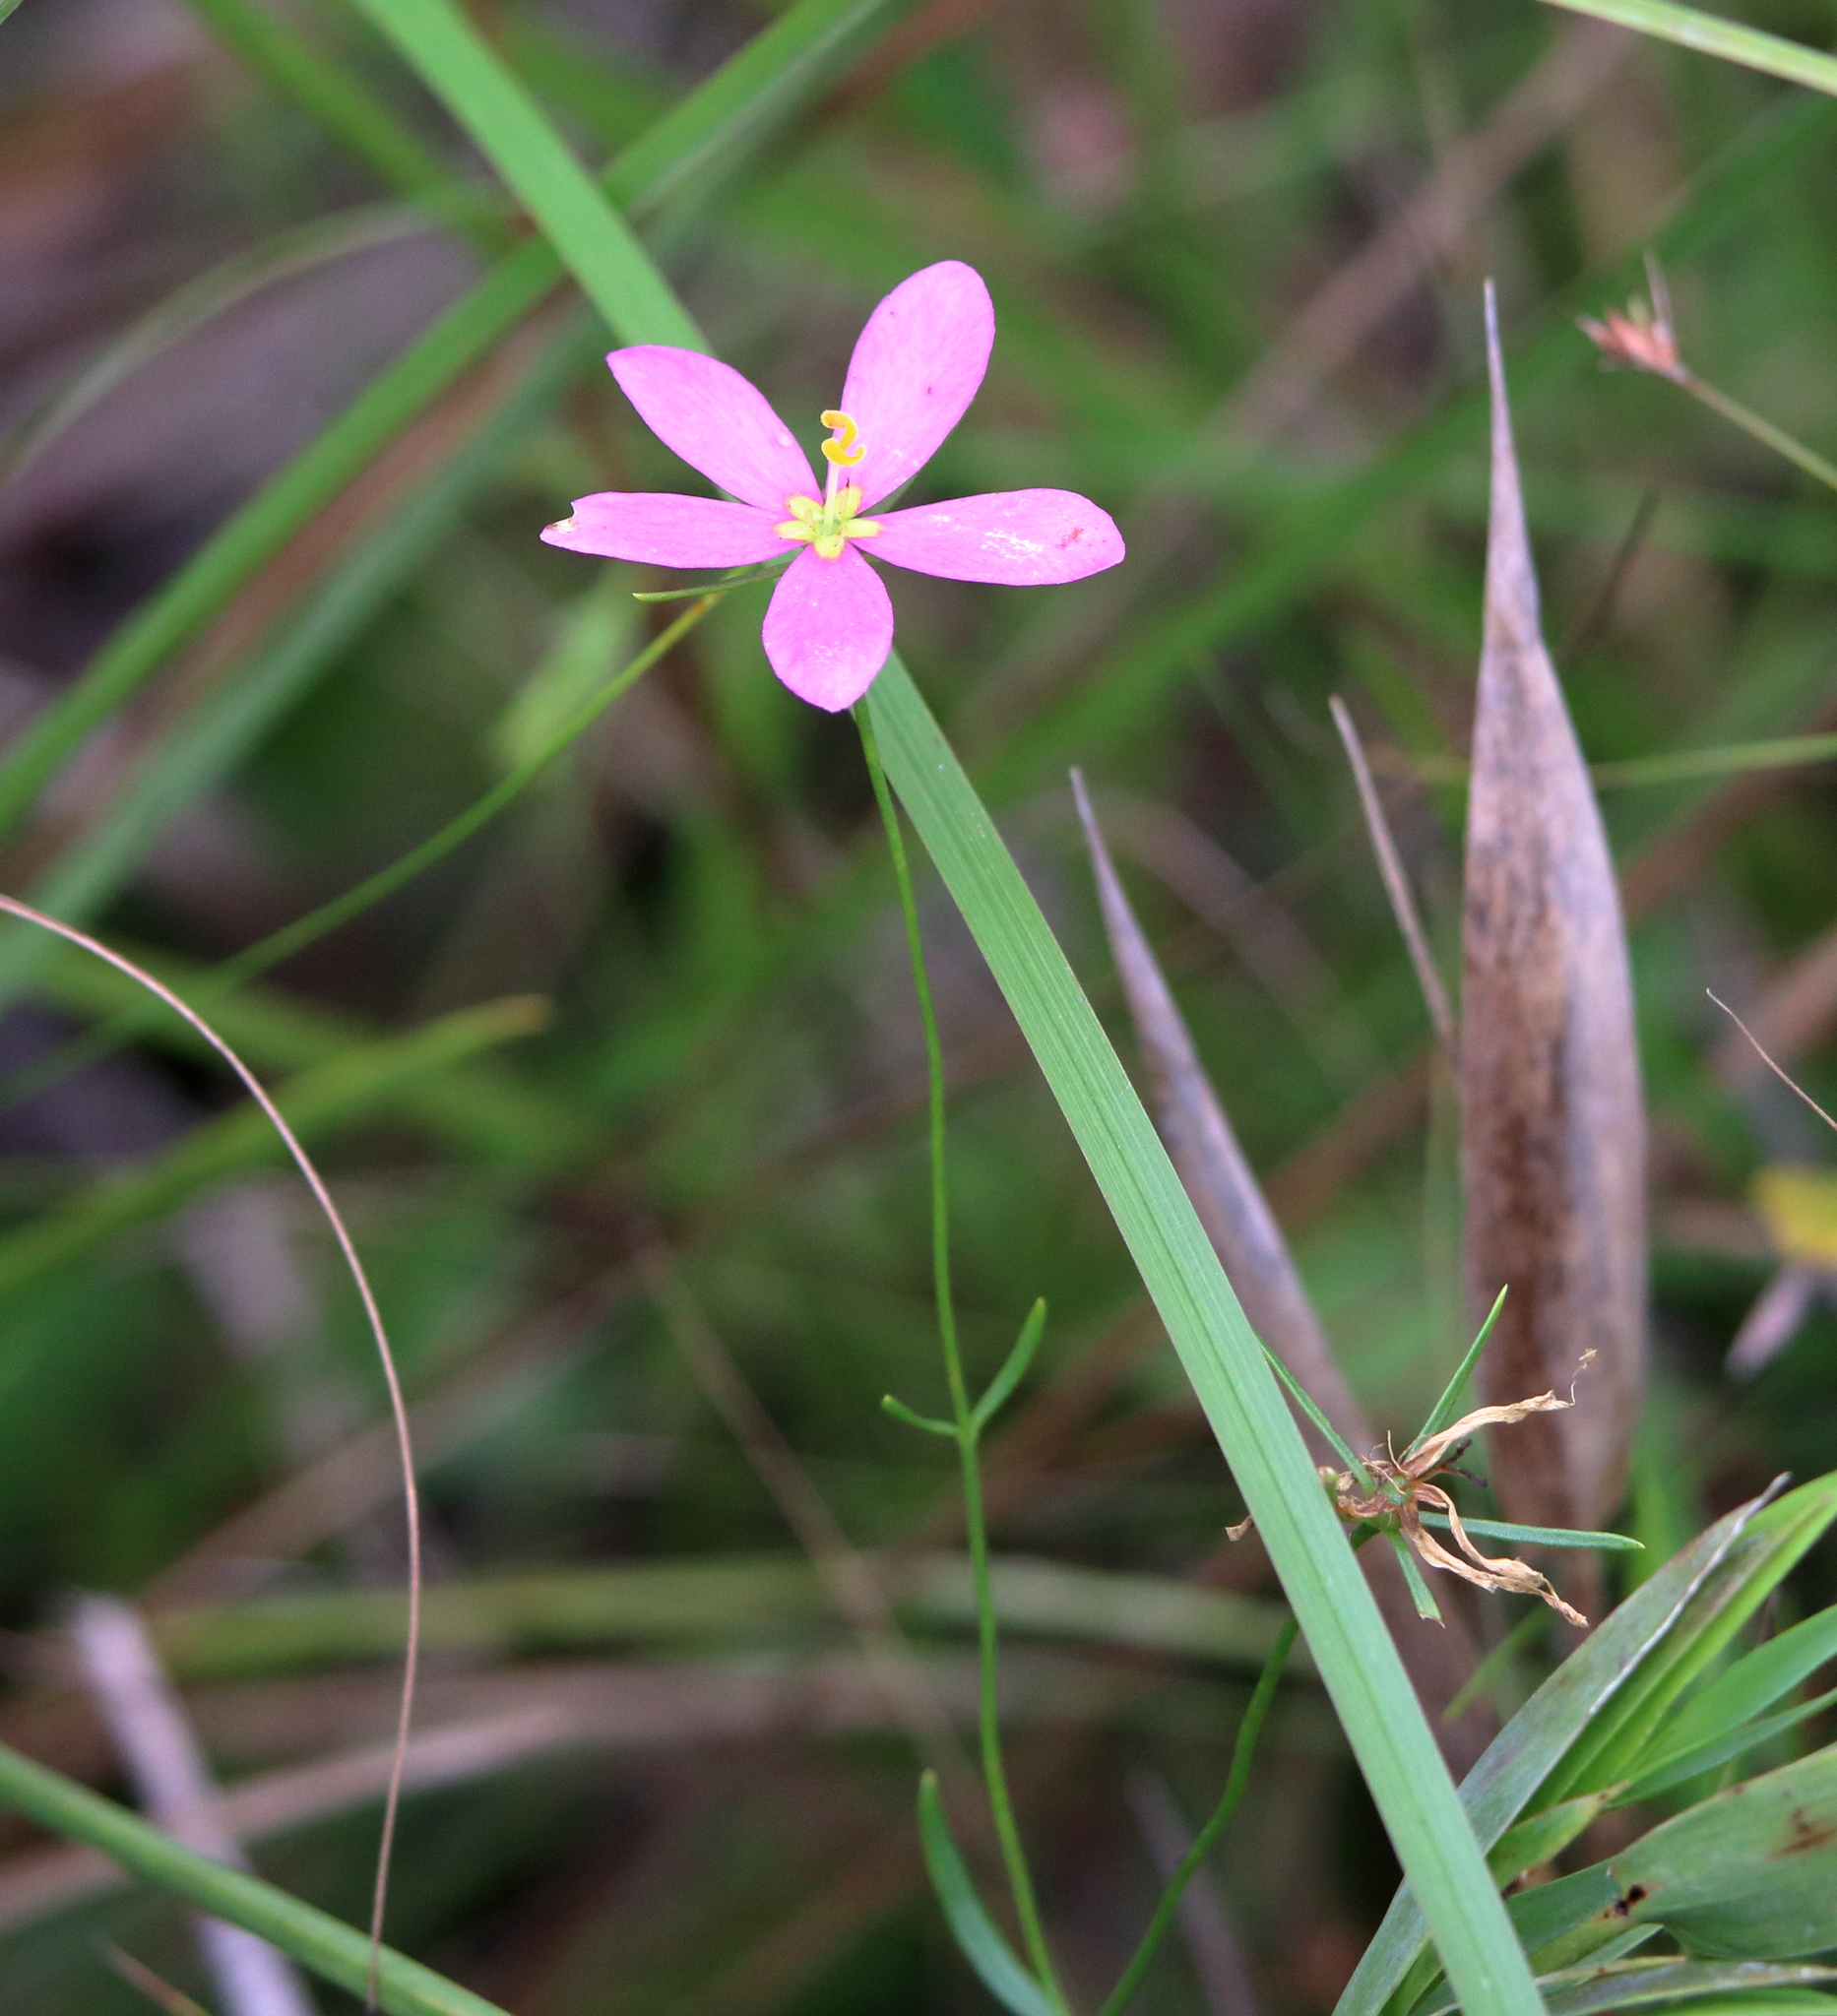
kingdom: Plantae
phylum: Tracheophyta
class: Magnoliopsida
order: Gentianales
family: Gentianaceae
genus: Sabatia
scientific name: Sabatia stellaris
